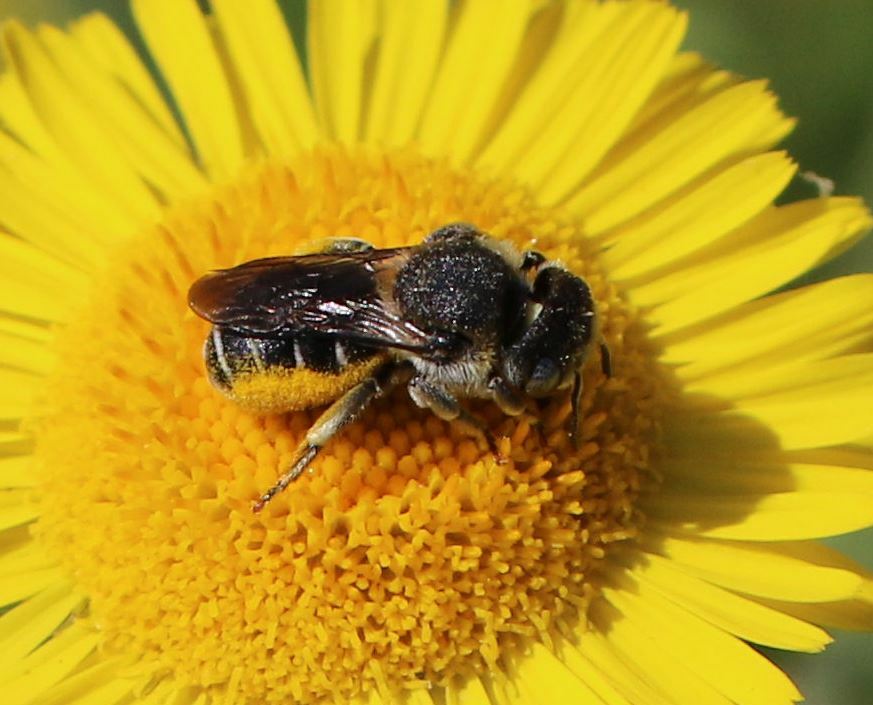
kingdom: Animalia
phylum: Arthropoda
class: Insecta
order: Hymenoptera
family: Megachilidae
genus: Osmia
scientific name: Osmia spinulosa
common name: Spined mason bee
